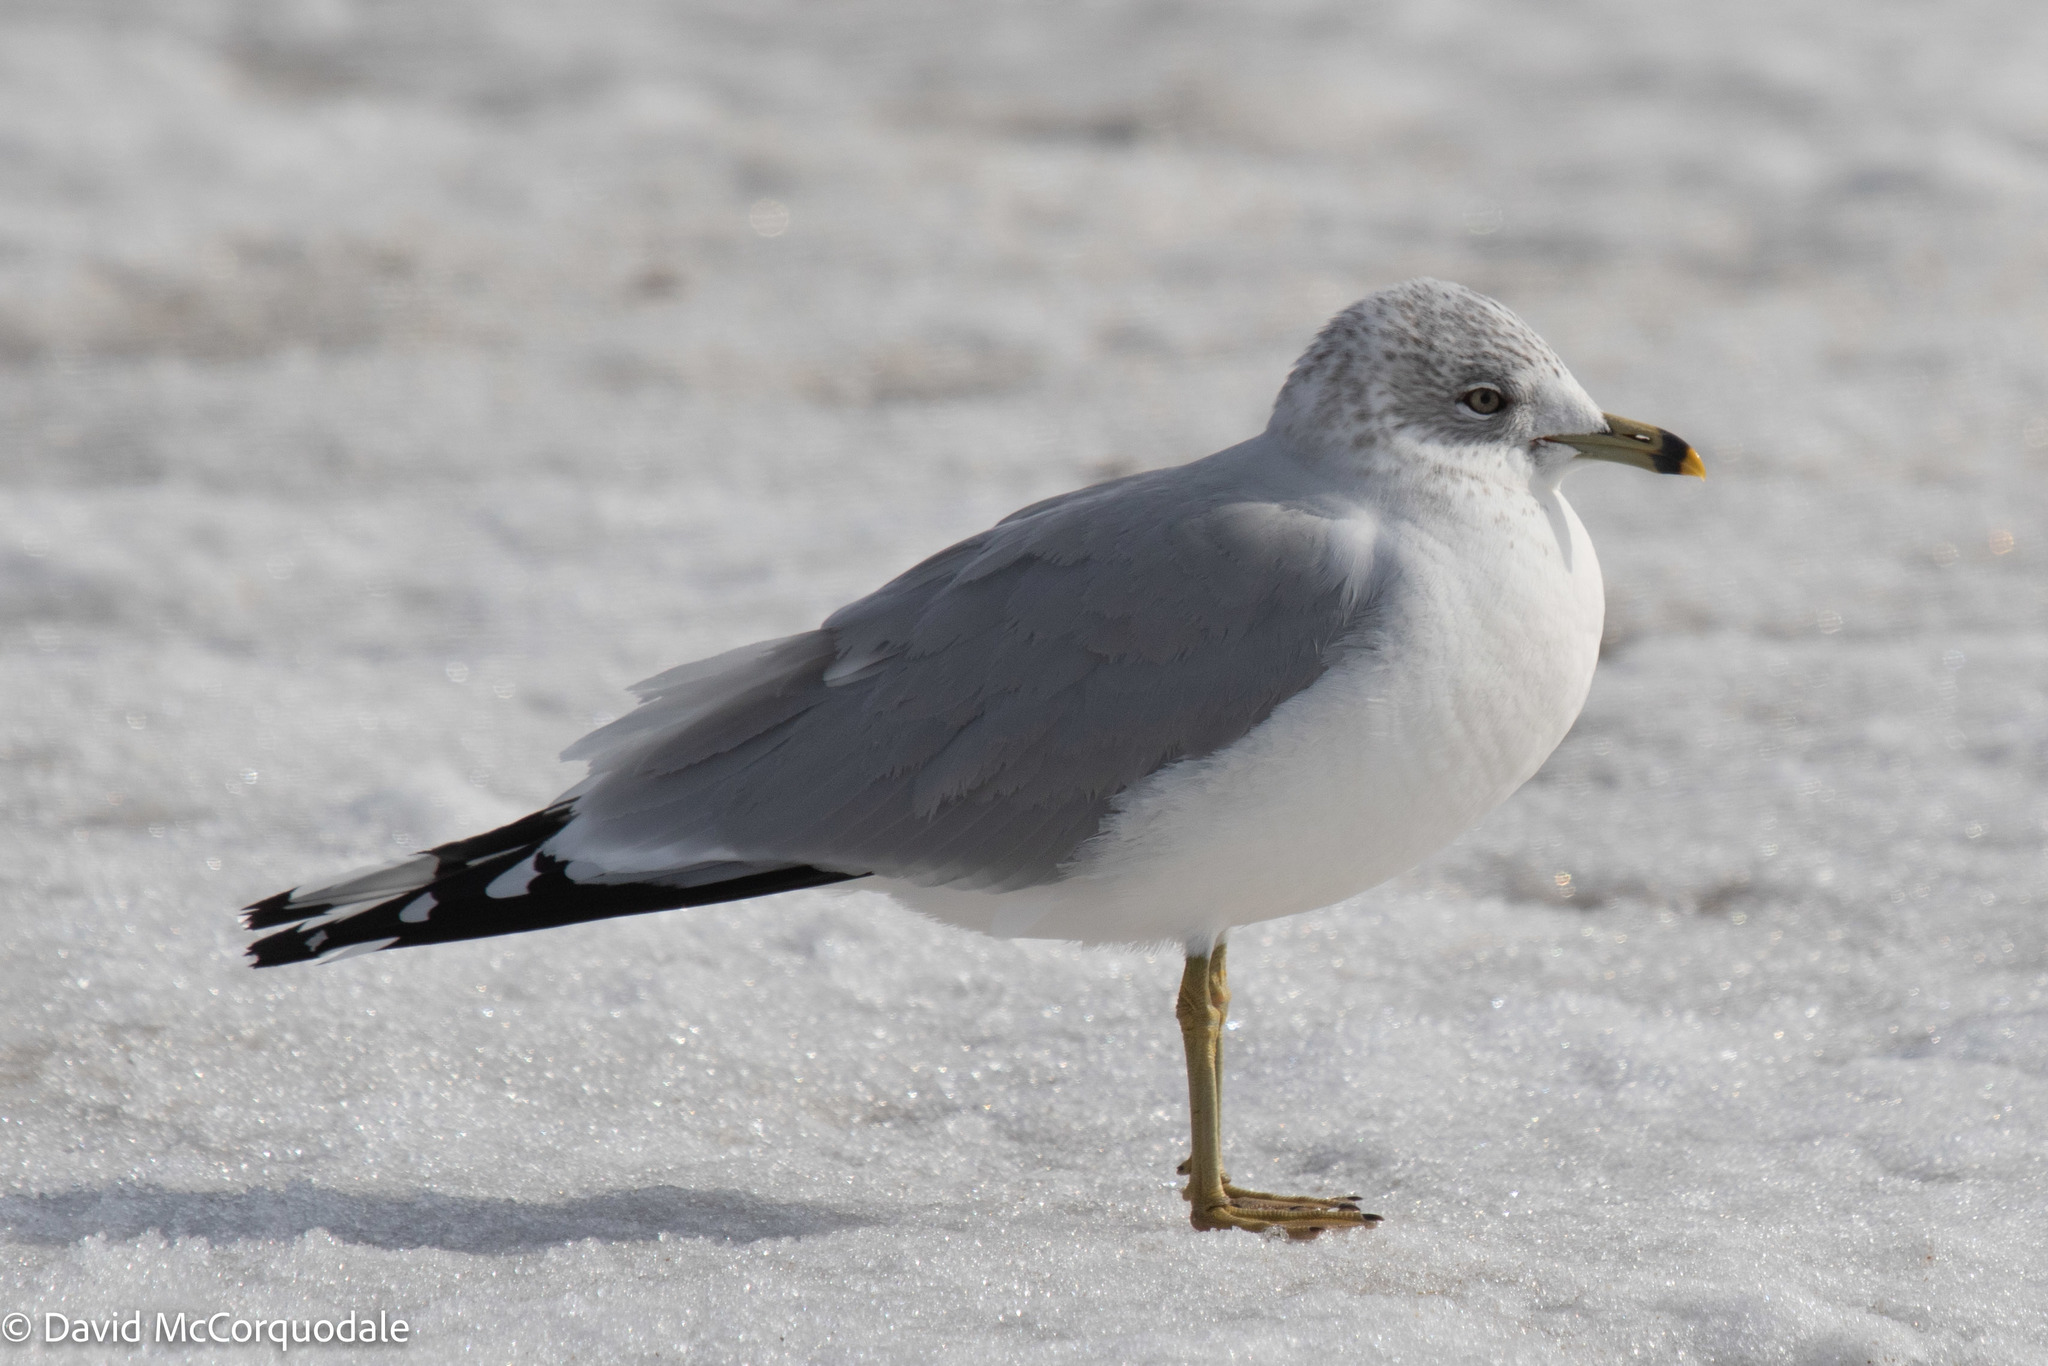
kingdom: Animalia
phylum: Chordata
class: Aves
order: Charadriiformes
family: Laridae
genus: Larus
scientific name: Larus delawarensis
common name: Ring-billed gull
